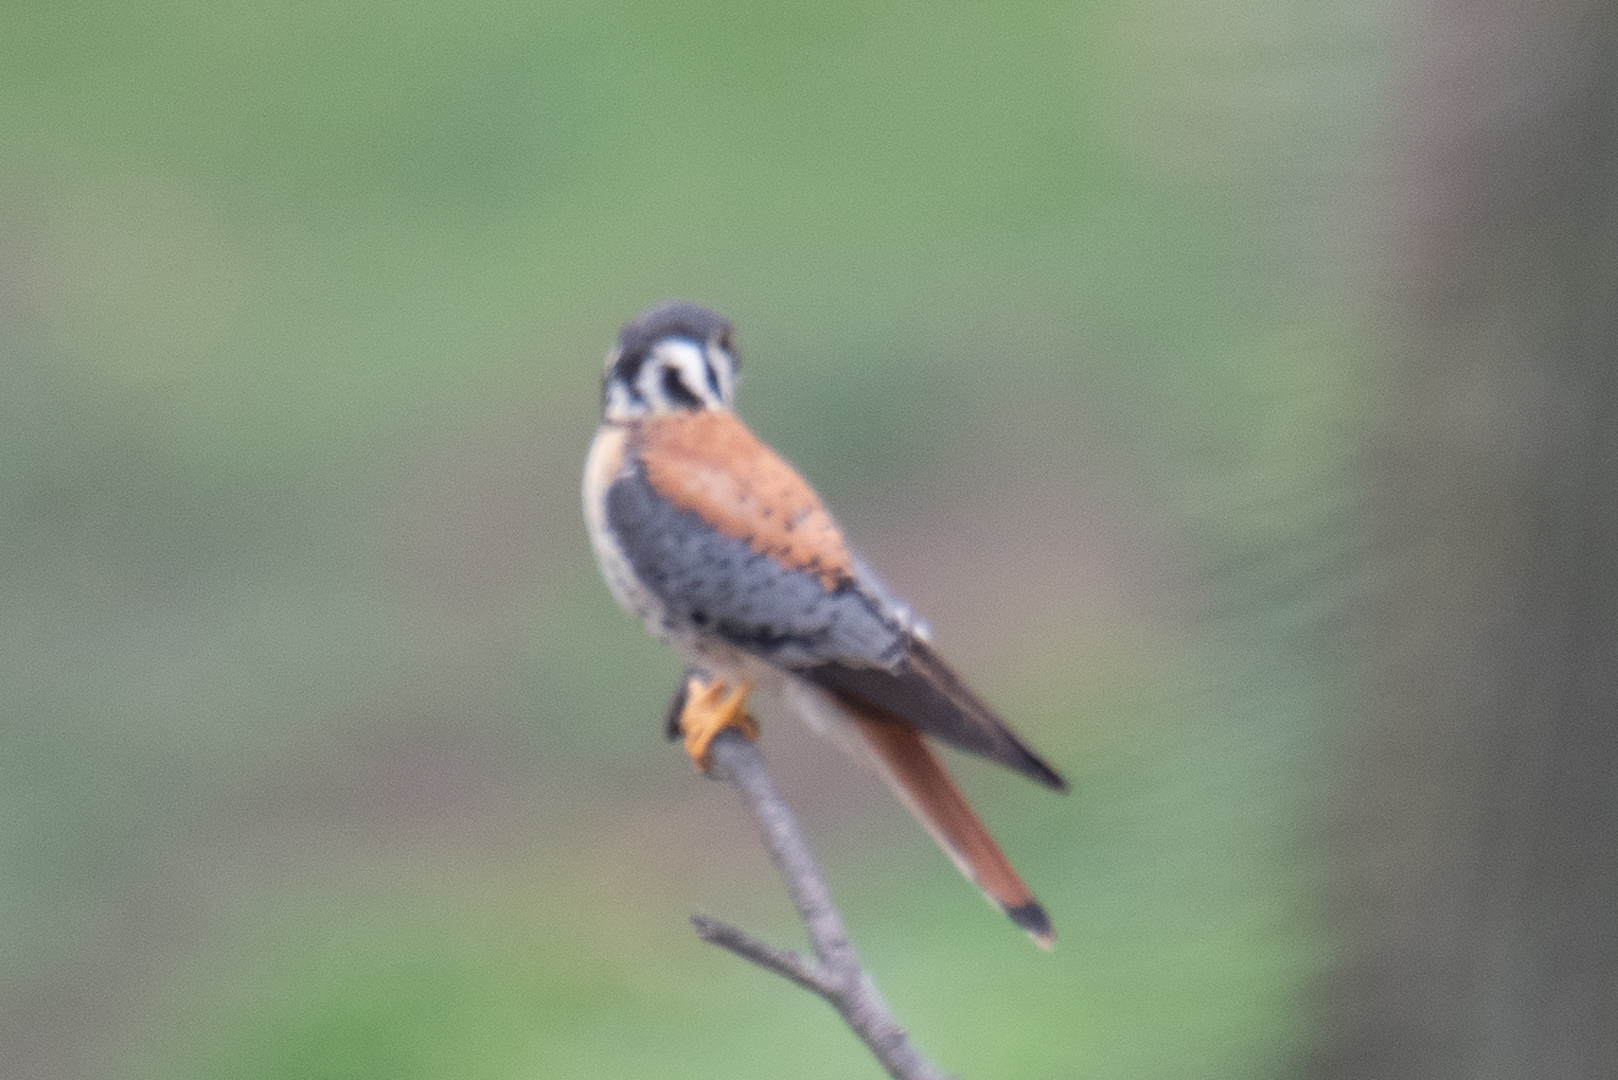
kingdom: Animalia
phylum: Chordata
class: Aves
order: Falconiformes
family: Falconidae
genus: Falco
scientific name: Falco sparverius
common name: American kestrel
